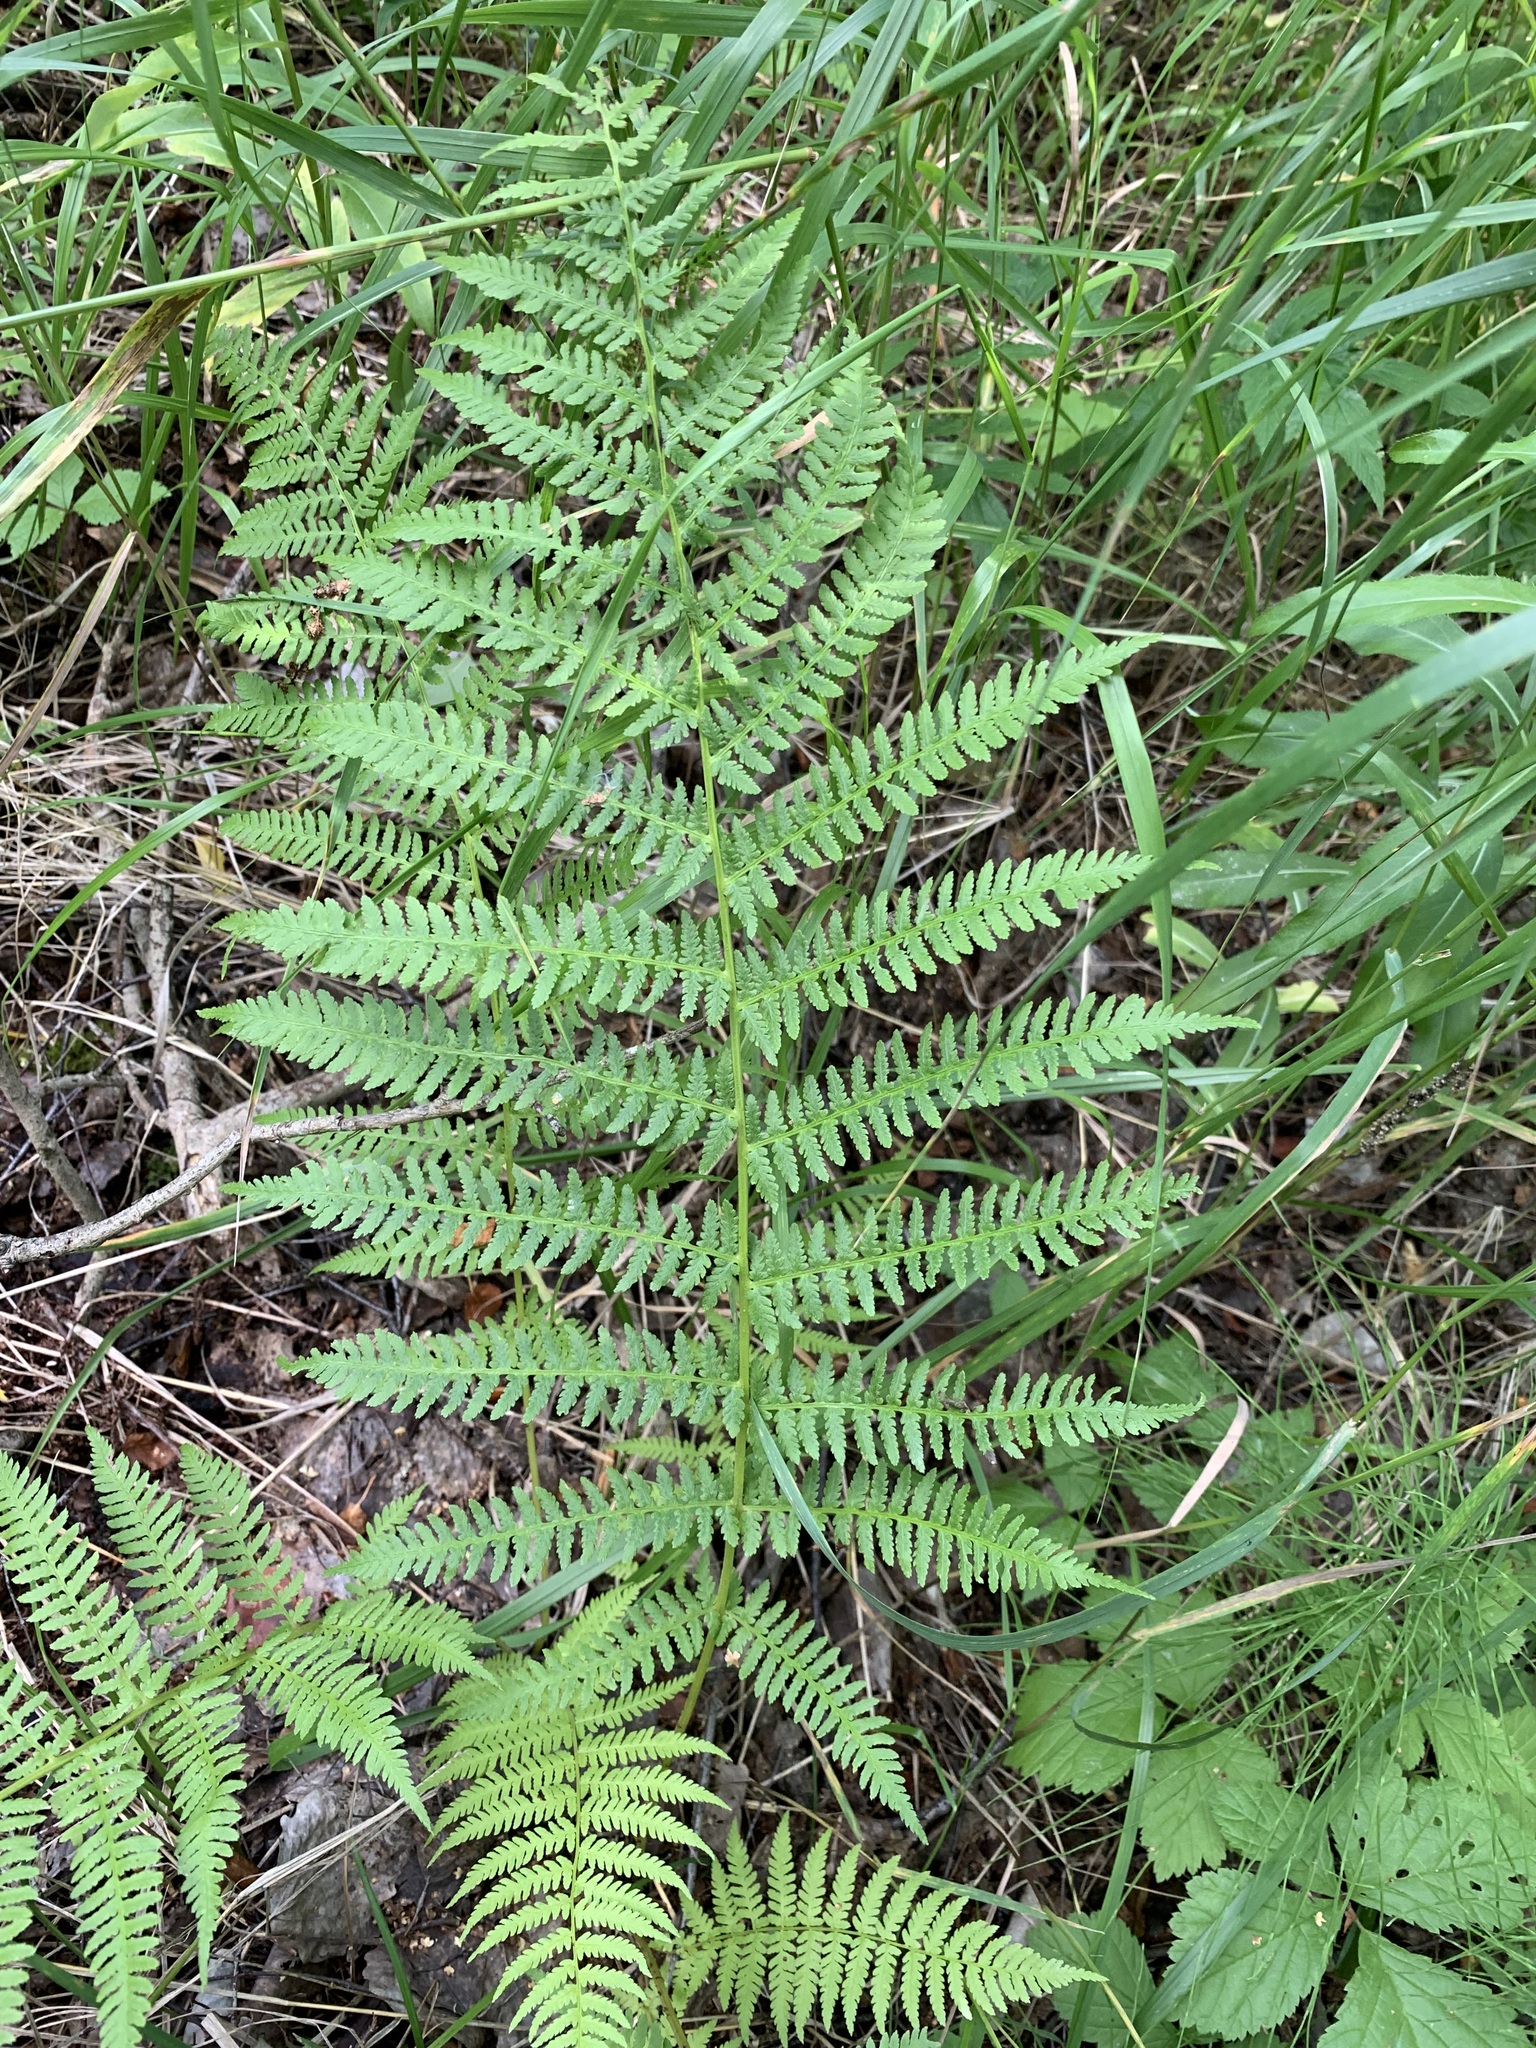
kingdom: Plantae
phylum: Tracheophyta
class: Polypodiopsida
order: Polypodiales
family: Athyriaceae
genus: Athyrium
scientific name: Athyrium filix-femina
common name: Lady fern
